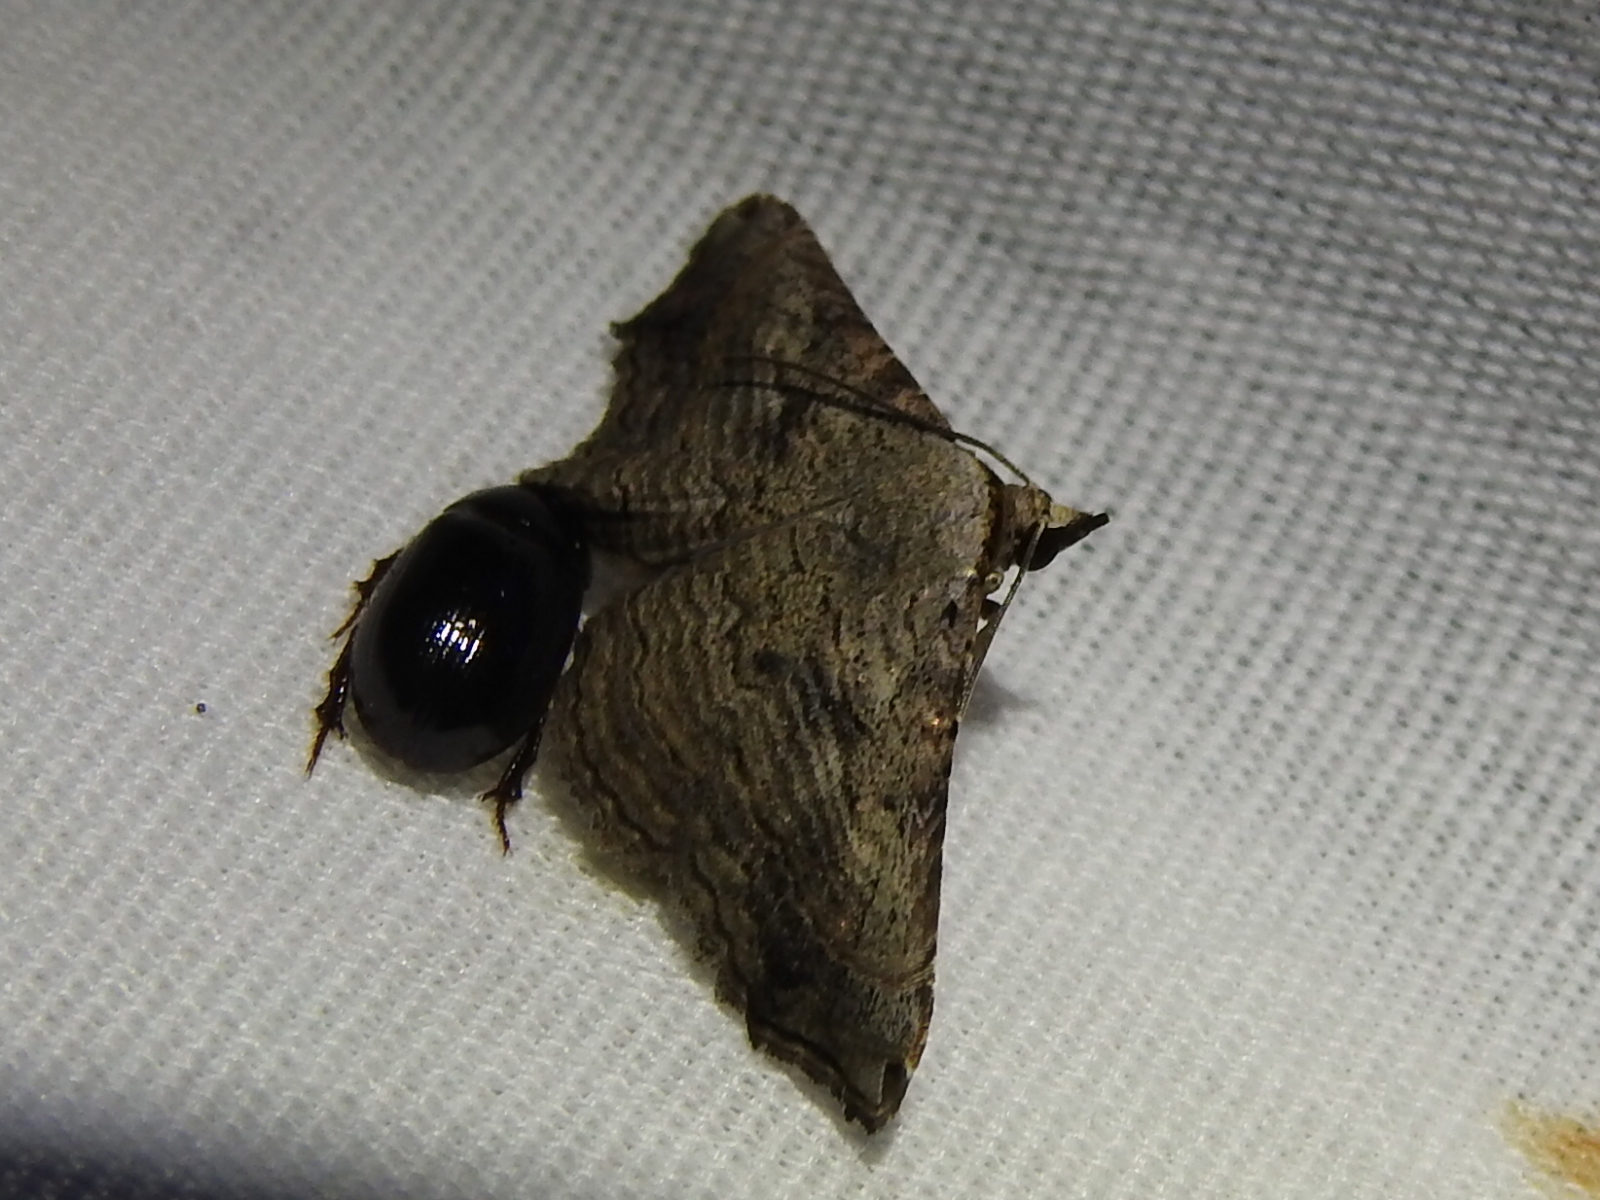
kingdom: Animalia
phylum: Arthropoda
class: Insecta
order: Lepidoptera
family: Erebidae
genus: Tyrissa
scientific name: Tyrissa multilinea
